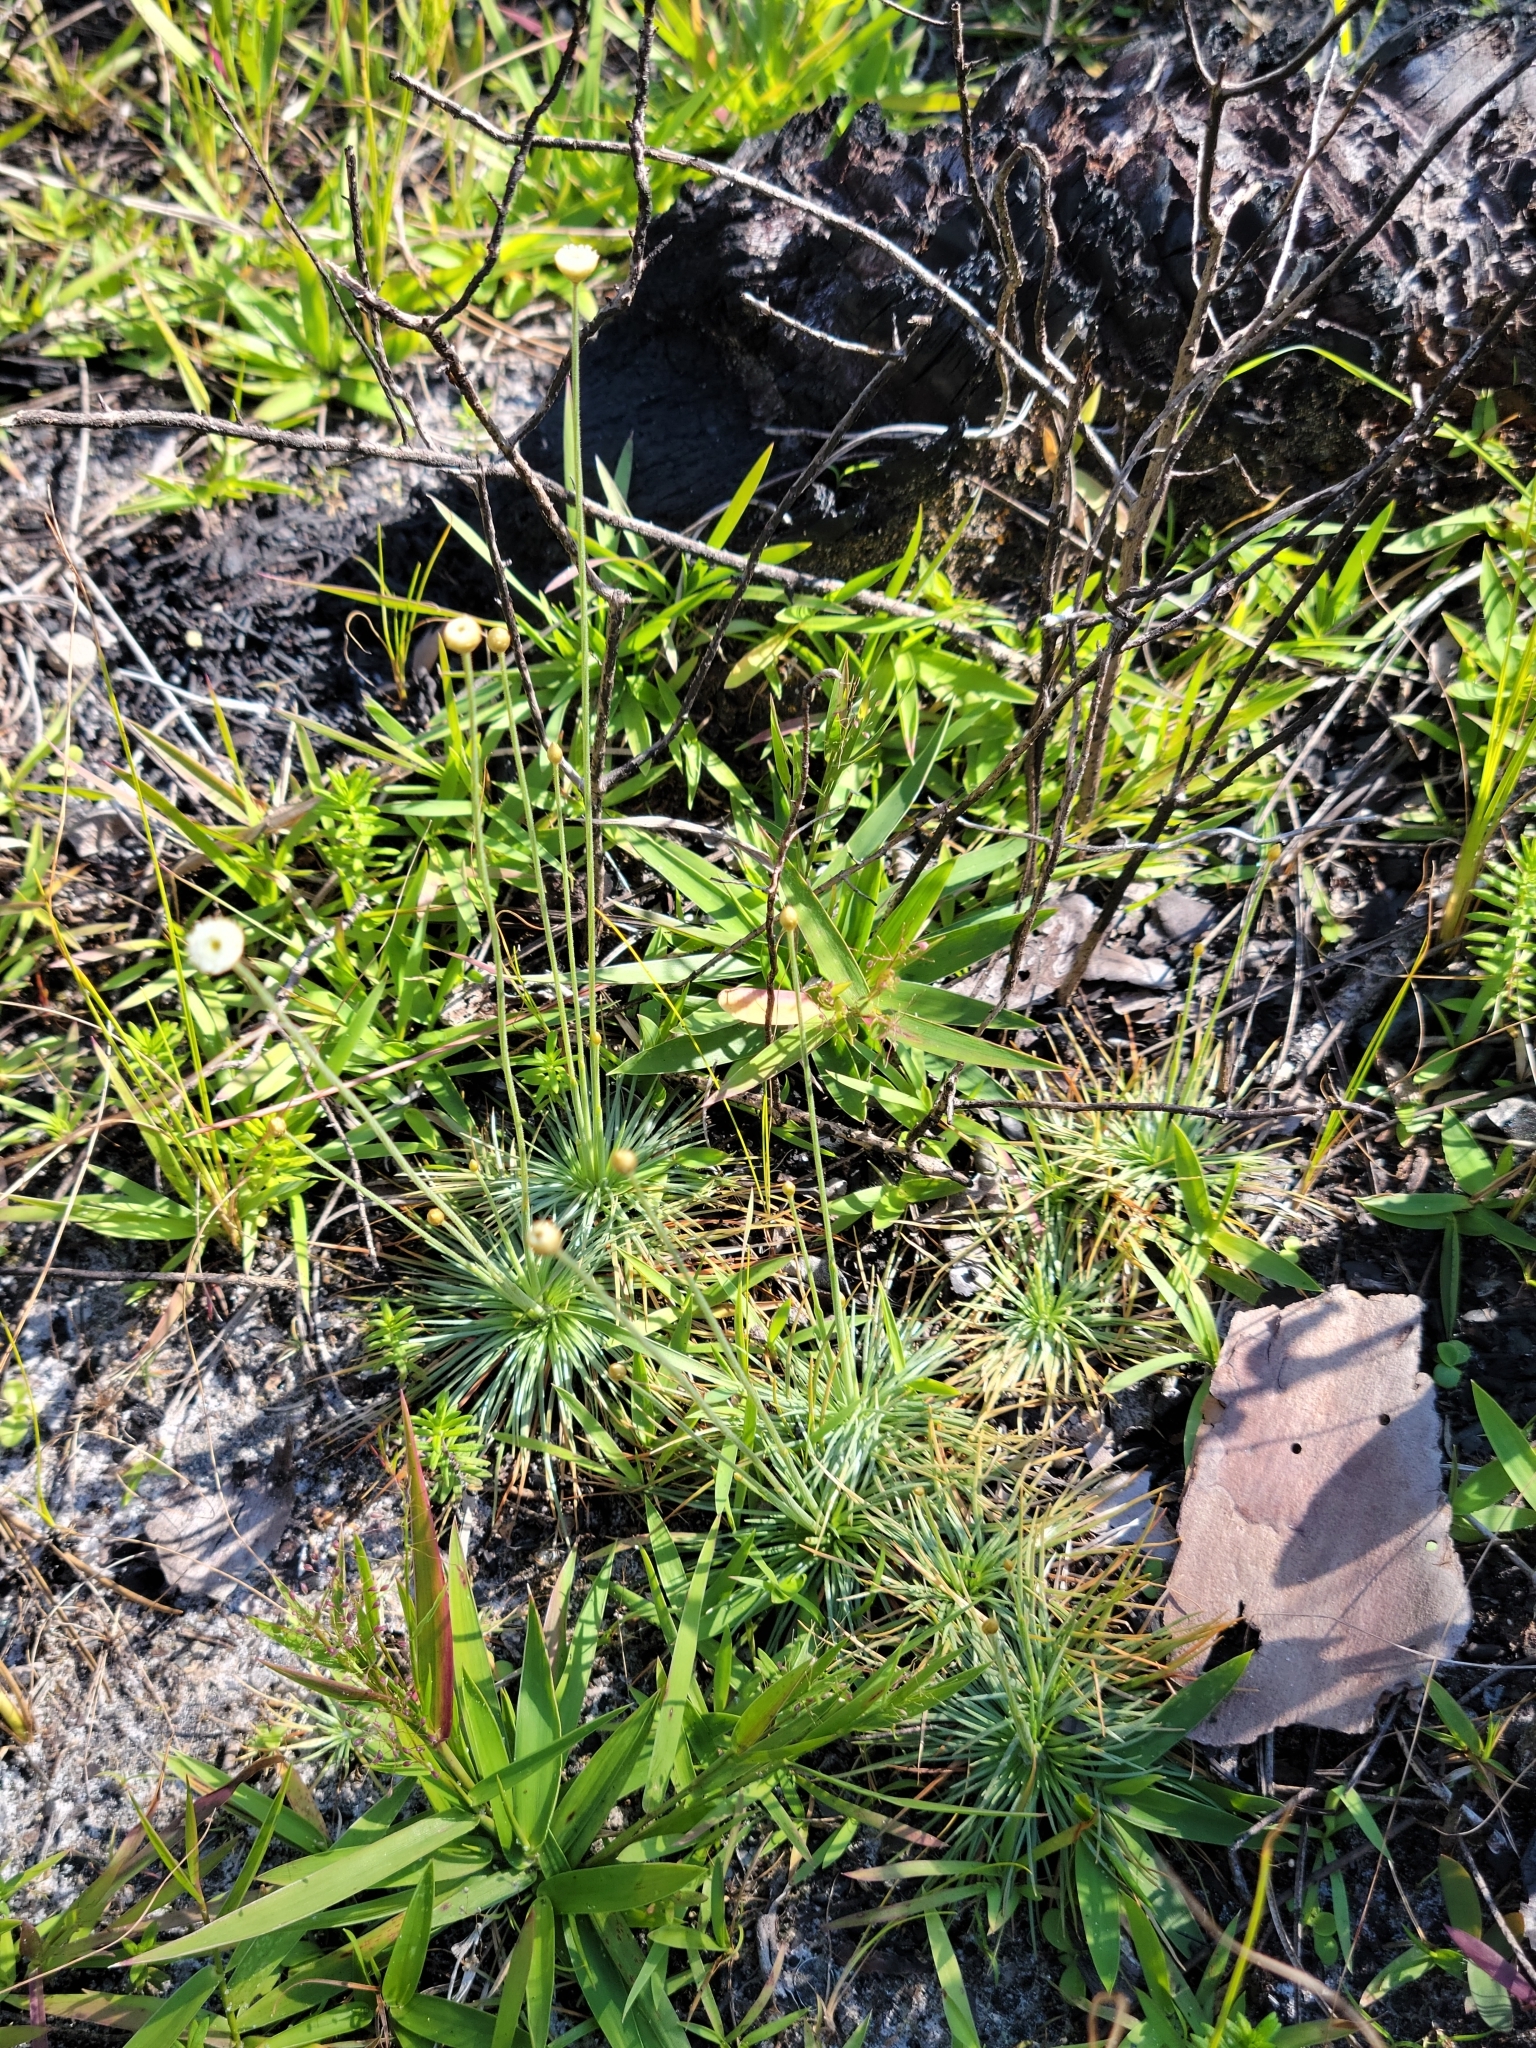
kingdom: Plantae
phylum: Tracheophyta
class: Liliopsida
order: Poales
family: Eriocaulaceae
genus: Syngonanthus
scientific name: Syngonanthus flavidulus
